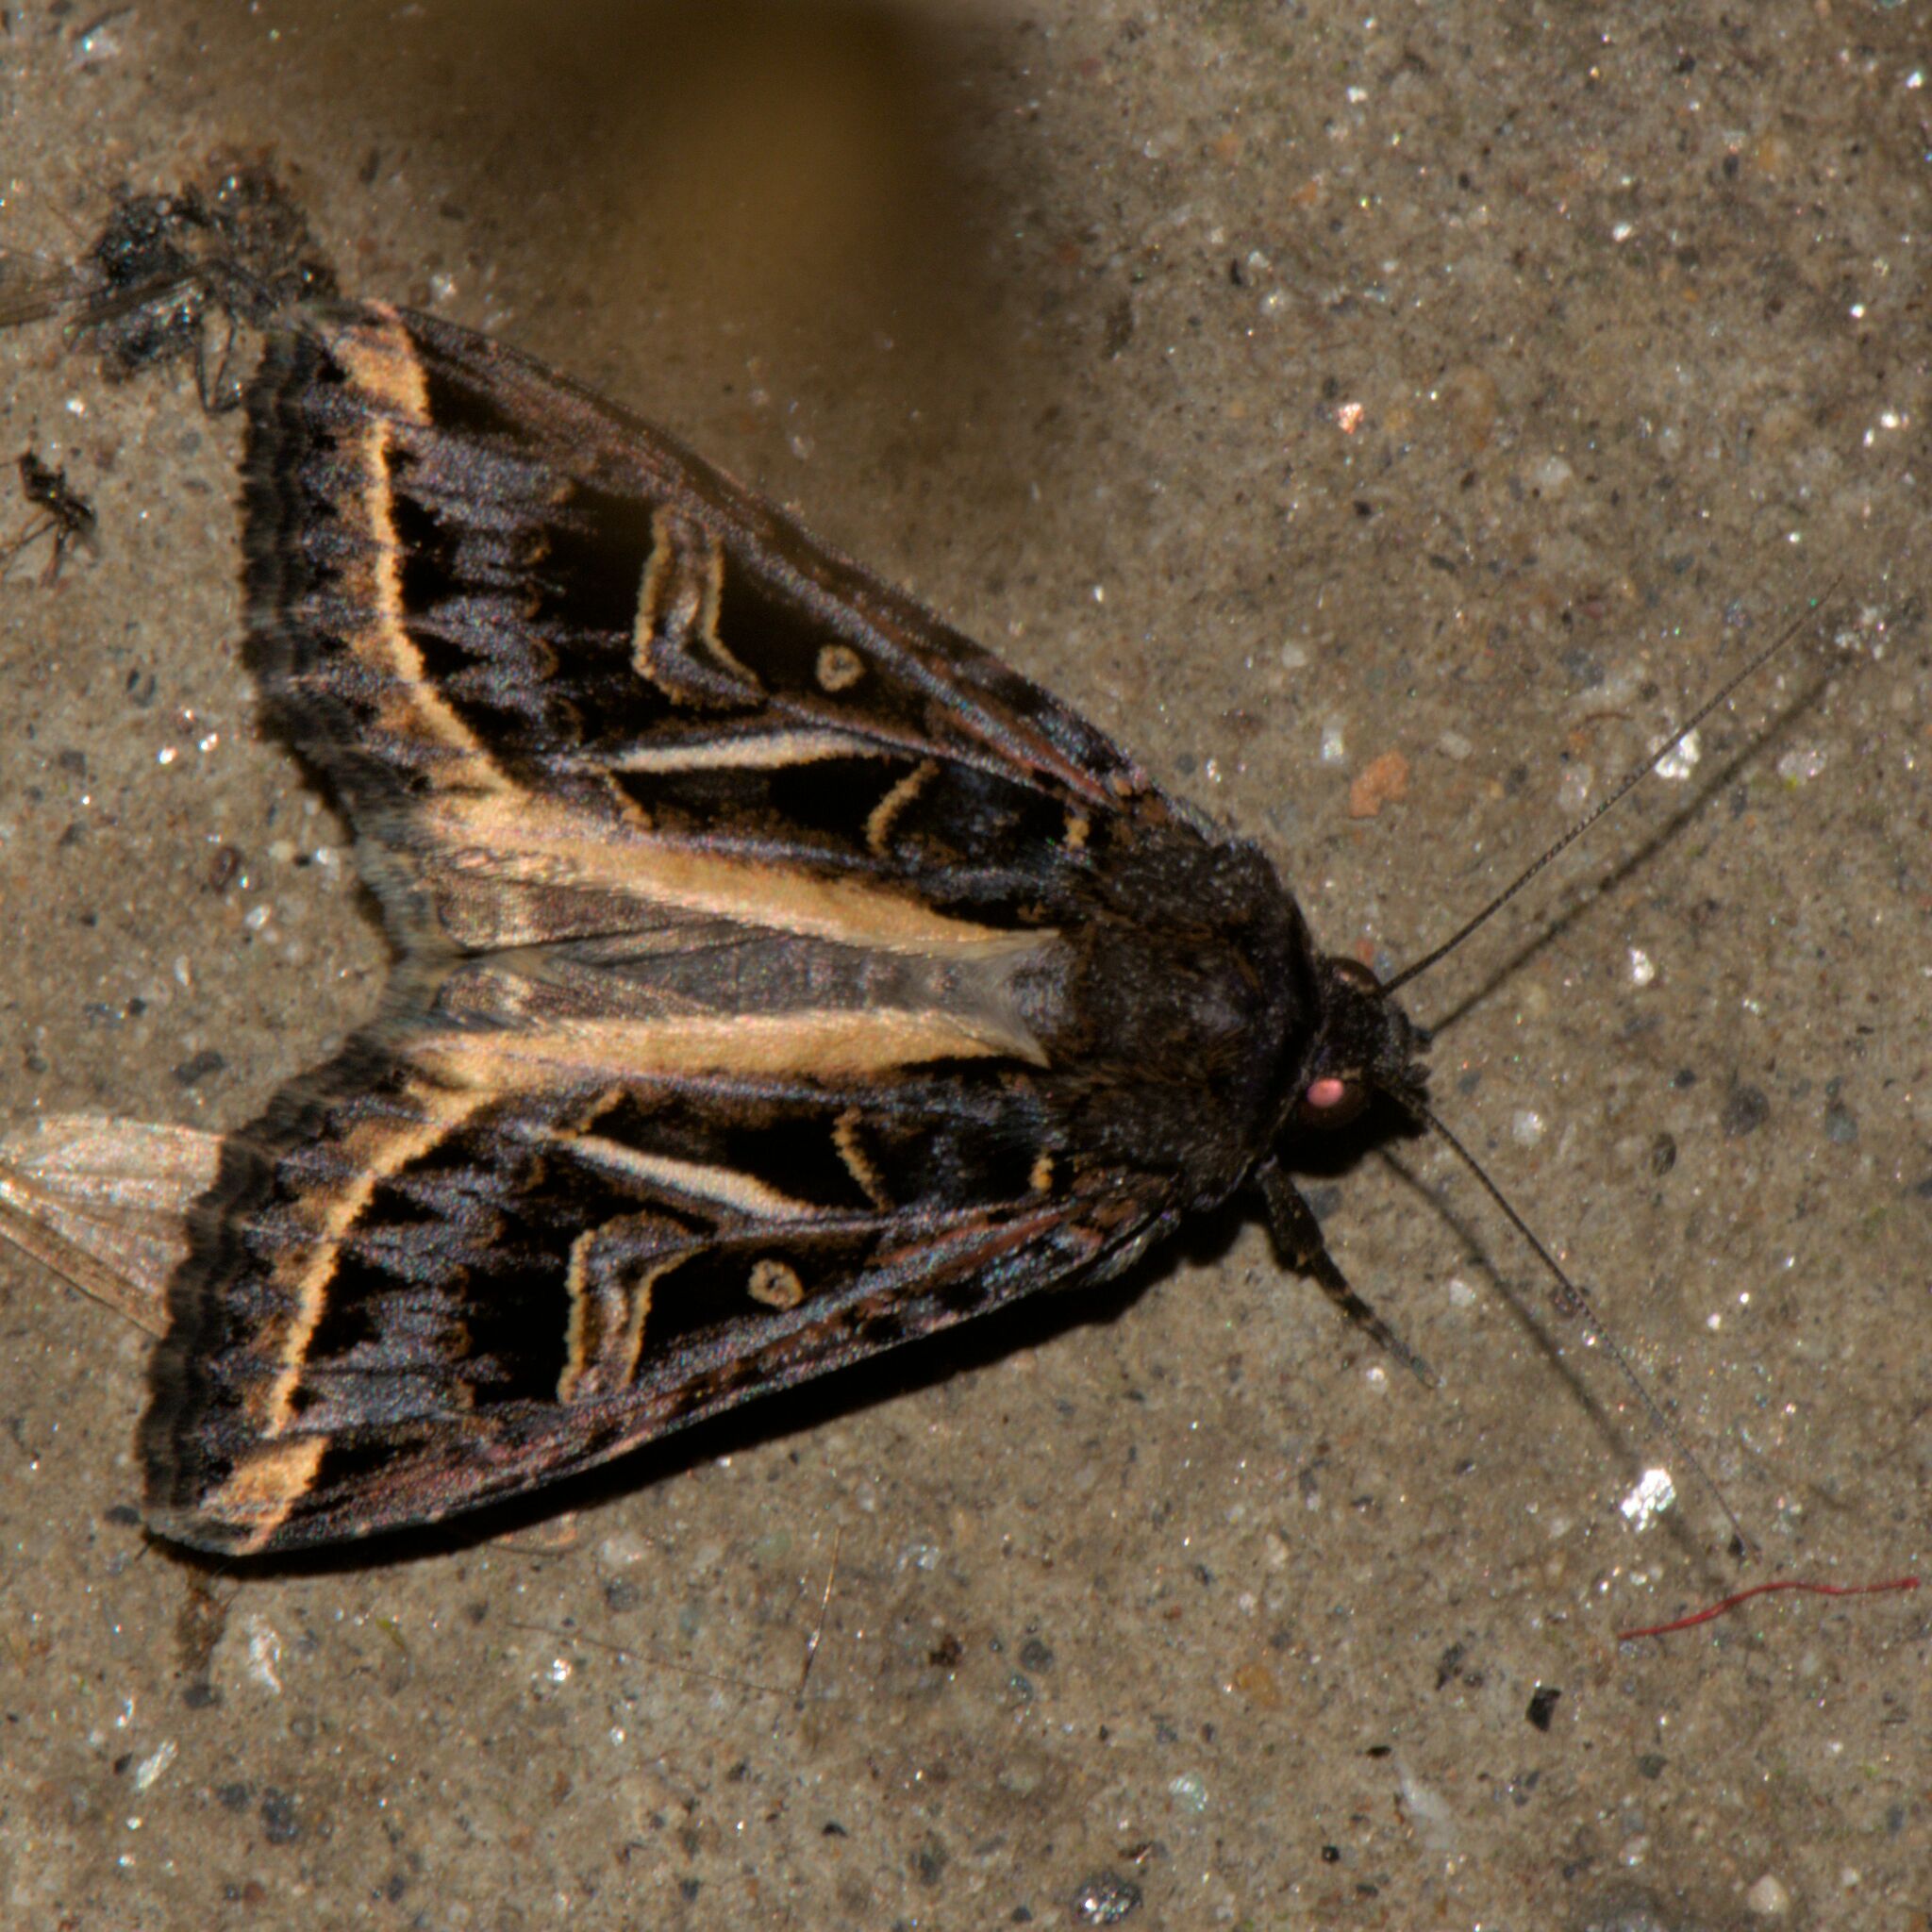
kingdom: Animalia
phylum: Arthropoda
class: Insecta
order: Lepidoptera
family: Noctuidae
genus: Odontestra
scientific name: Odontestra
